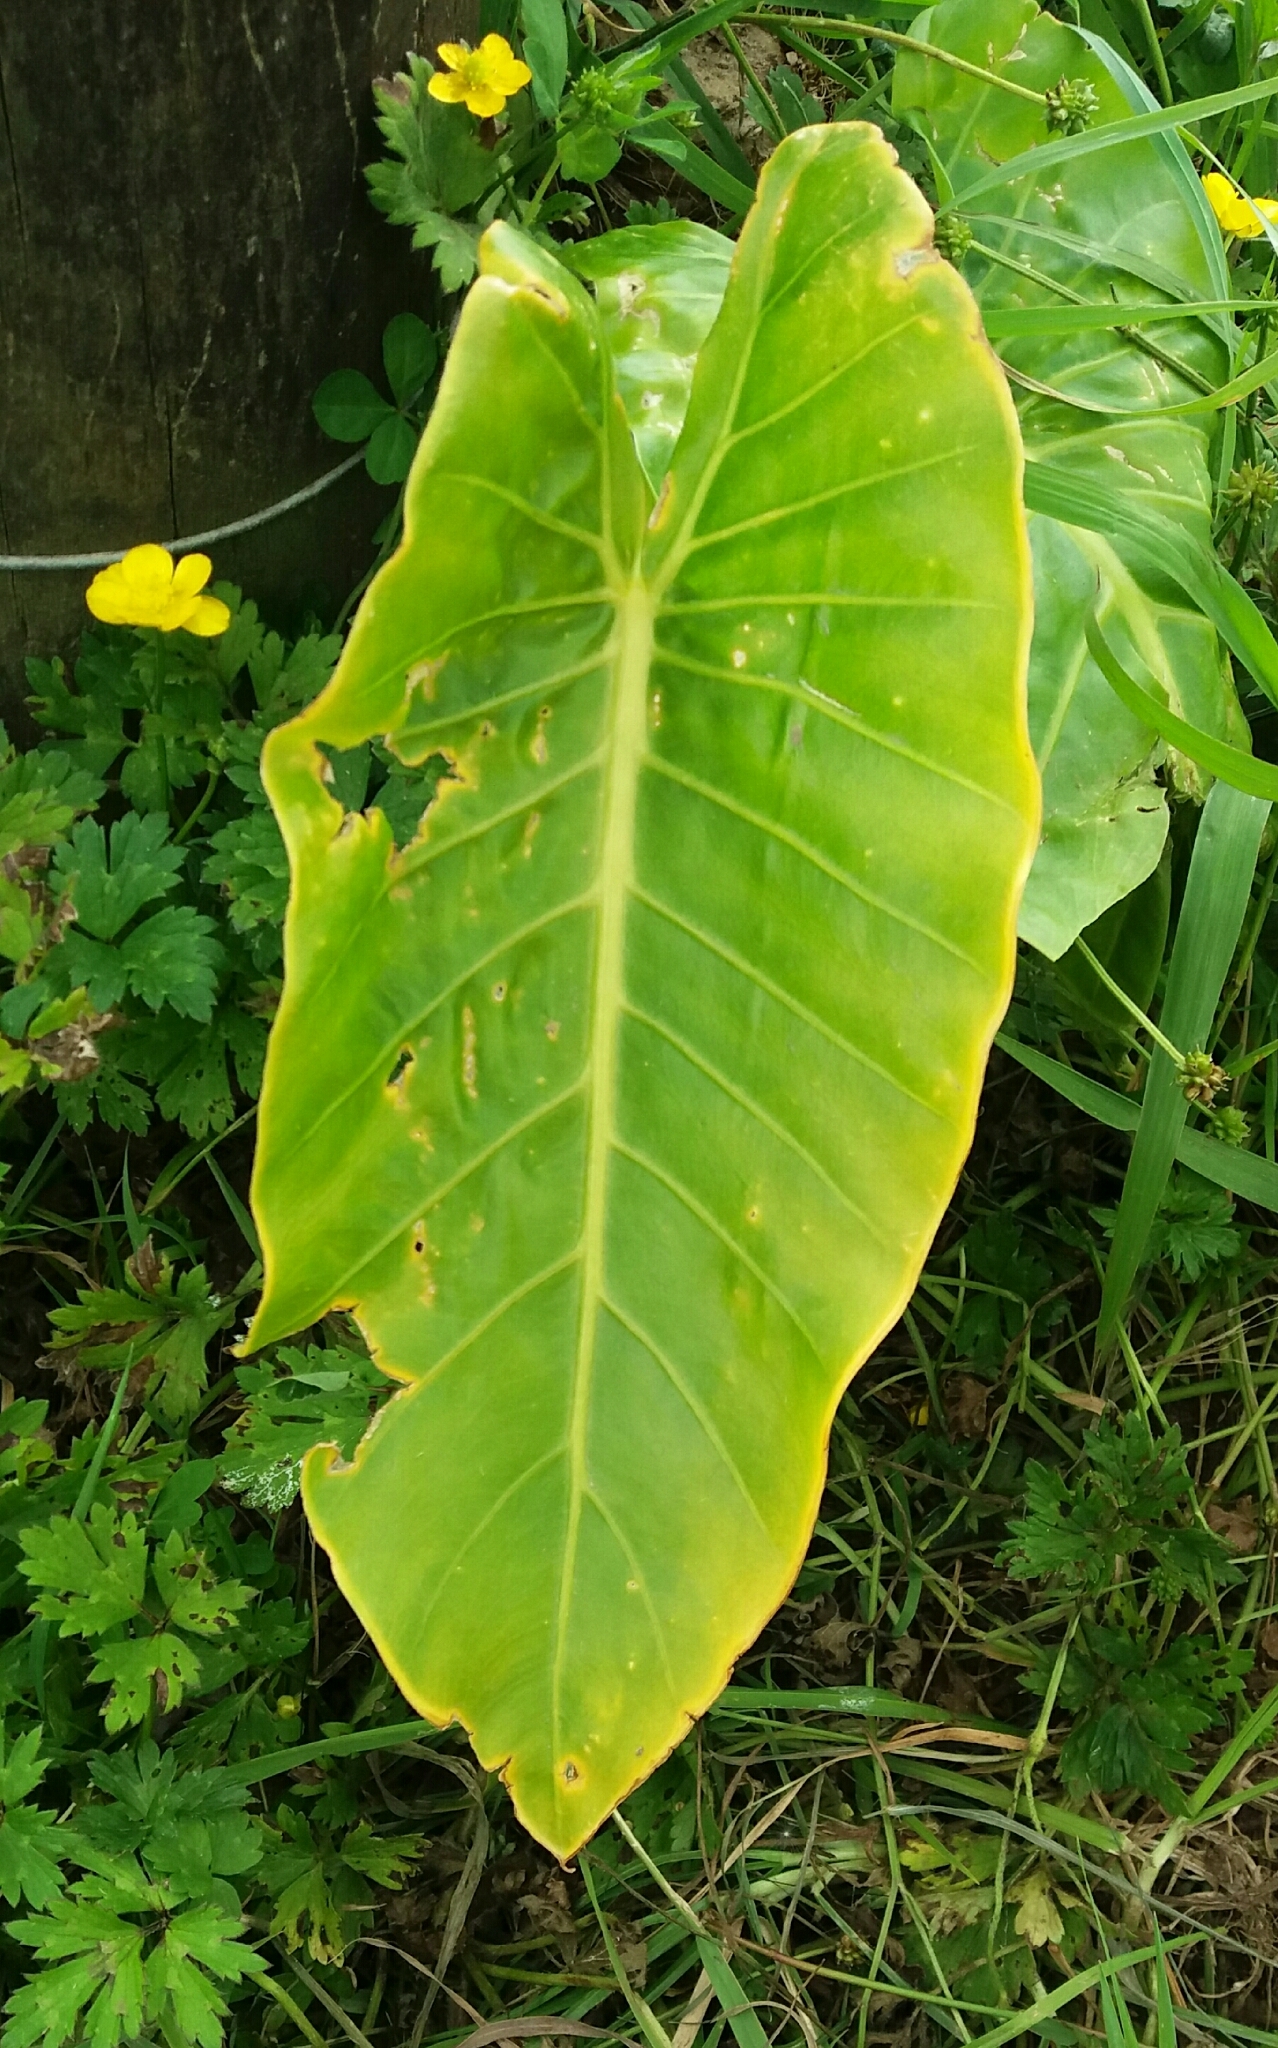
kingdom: Plantae
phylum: Tracheophyta
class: Liliopsida
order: Alismatales
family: Araceae
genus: Alocasia
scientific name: Alocasia brisbanensis
